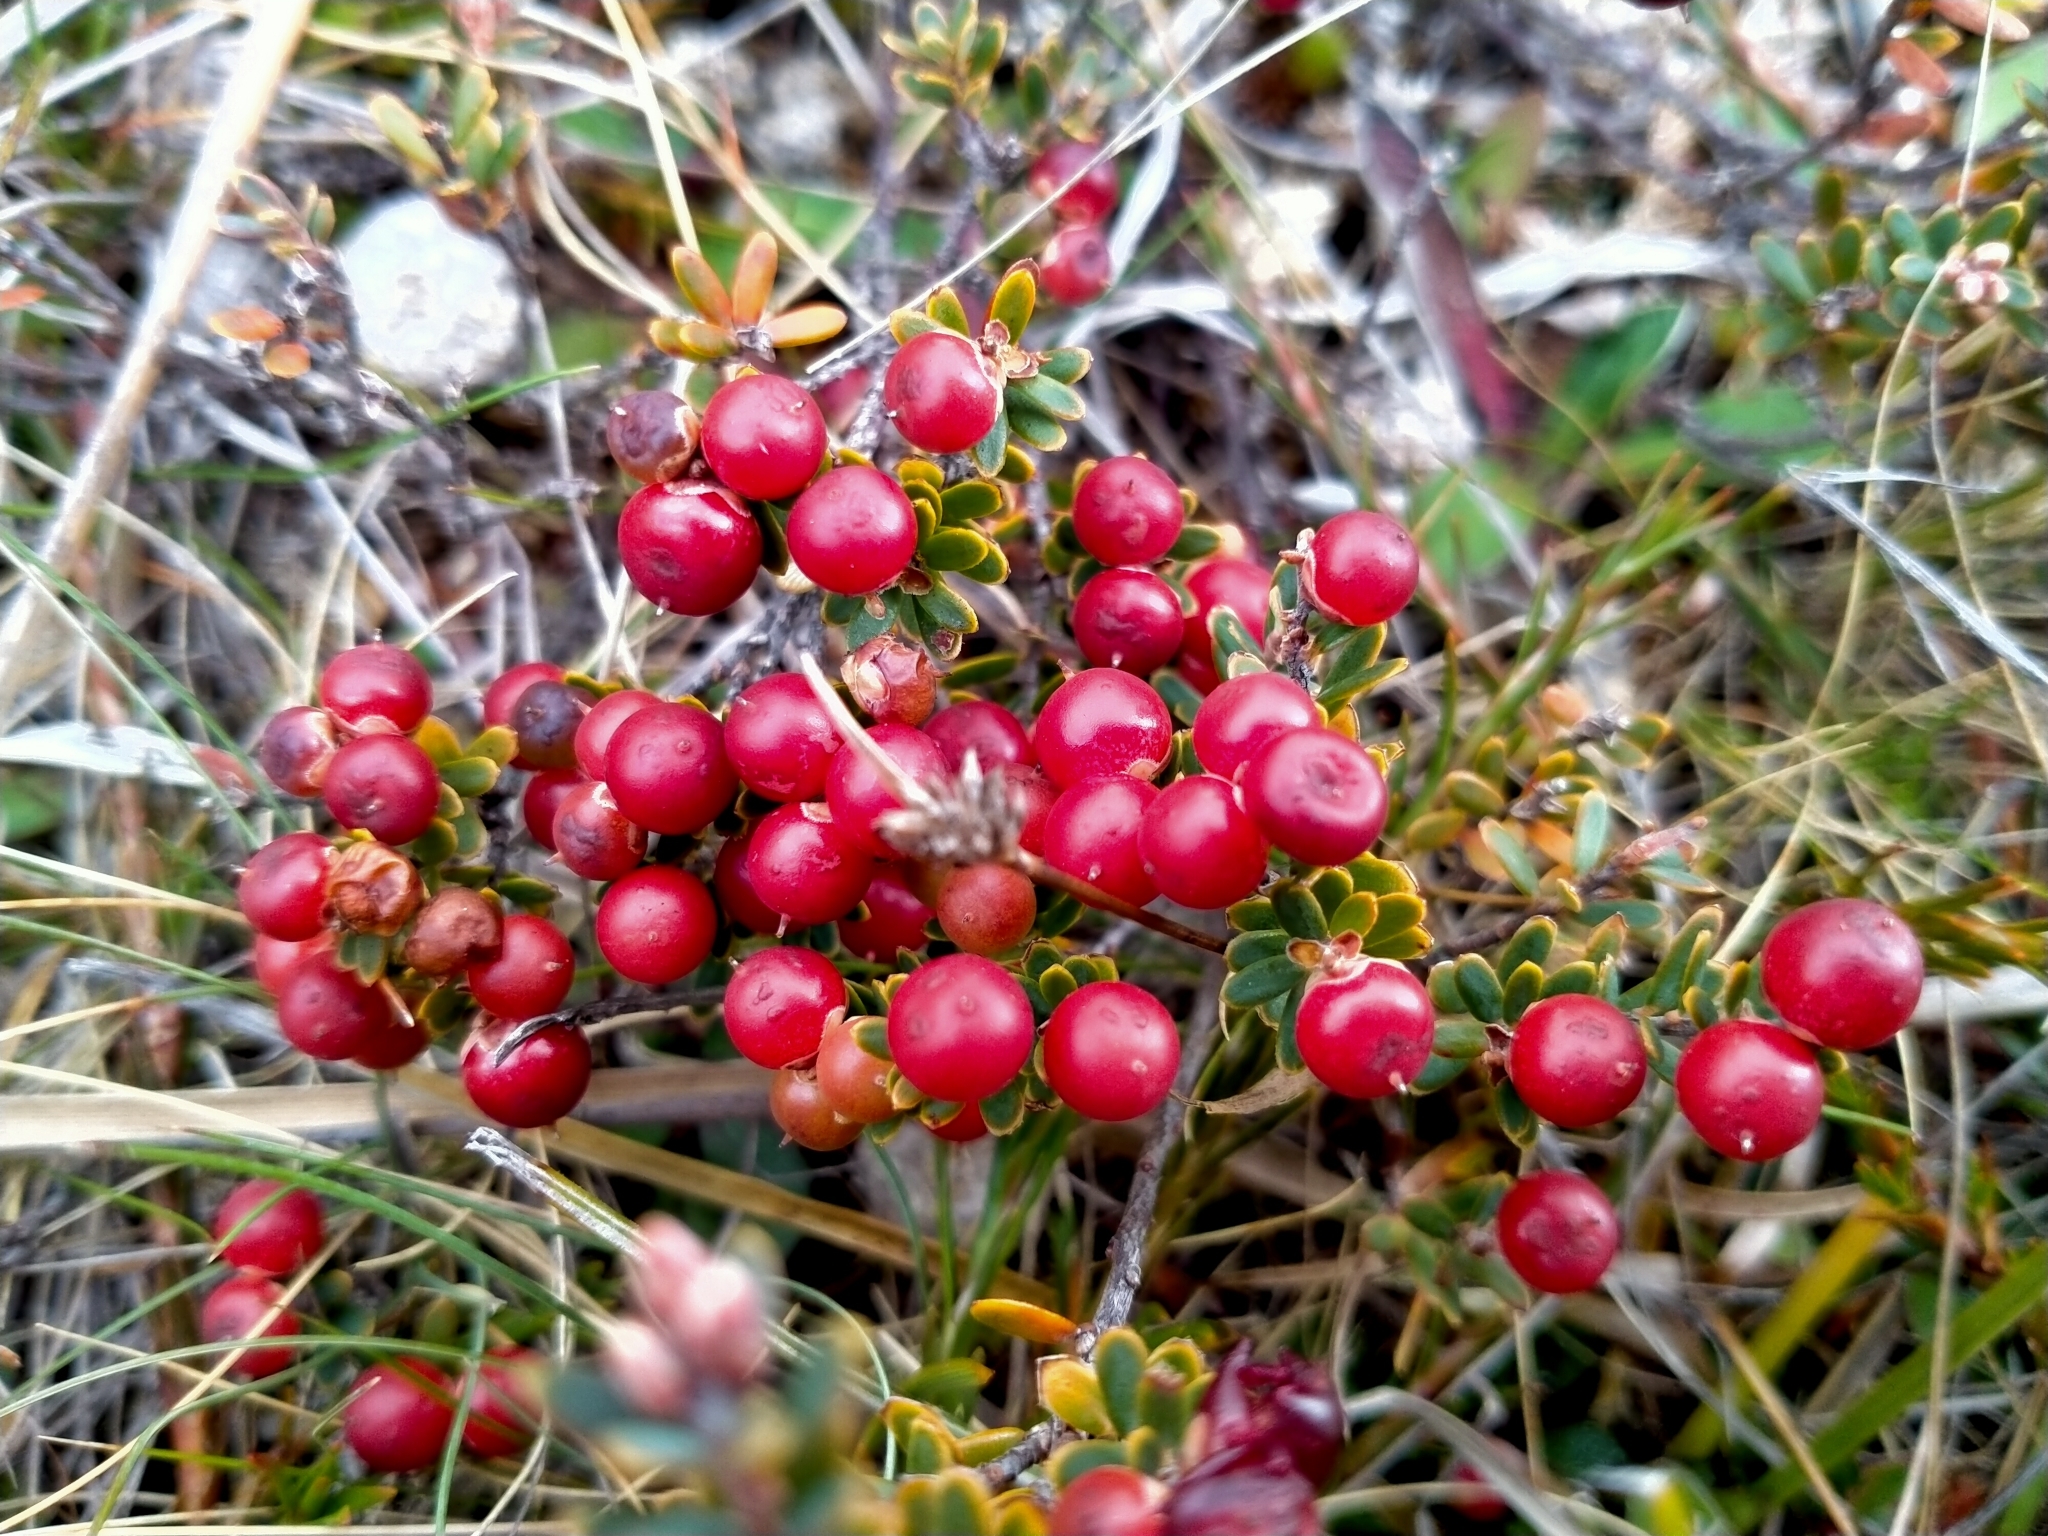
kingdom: Plantae
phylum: Tracheophyta
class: Magnoliopsida
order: Ericales
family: Ericaceae
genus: Acrothamnus
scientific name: Acrothamnus colensoi
